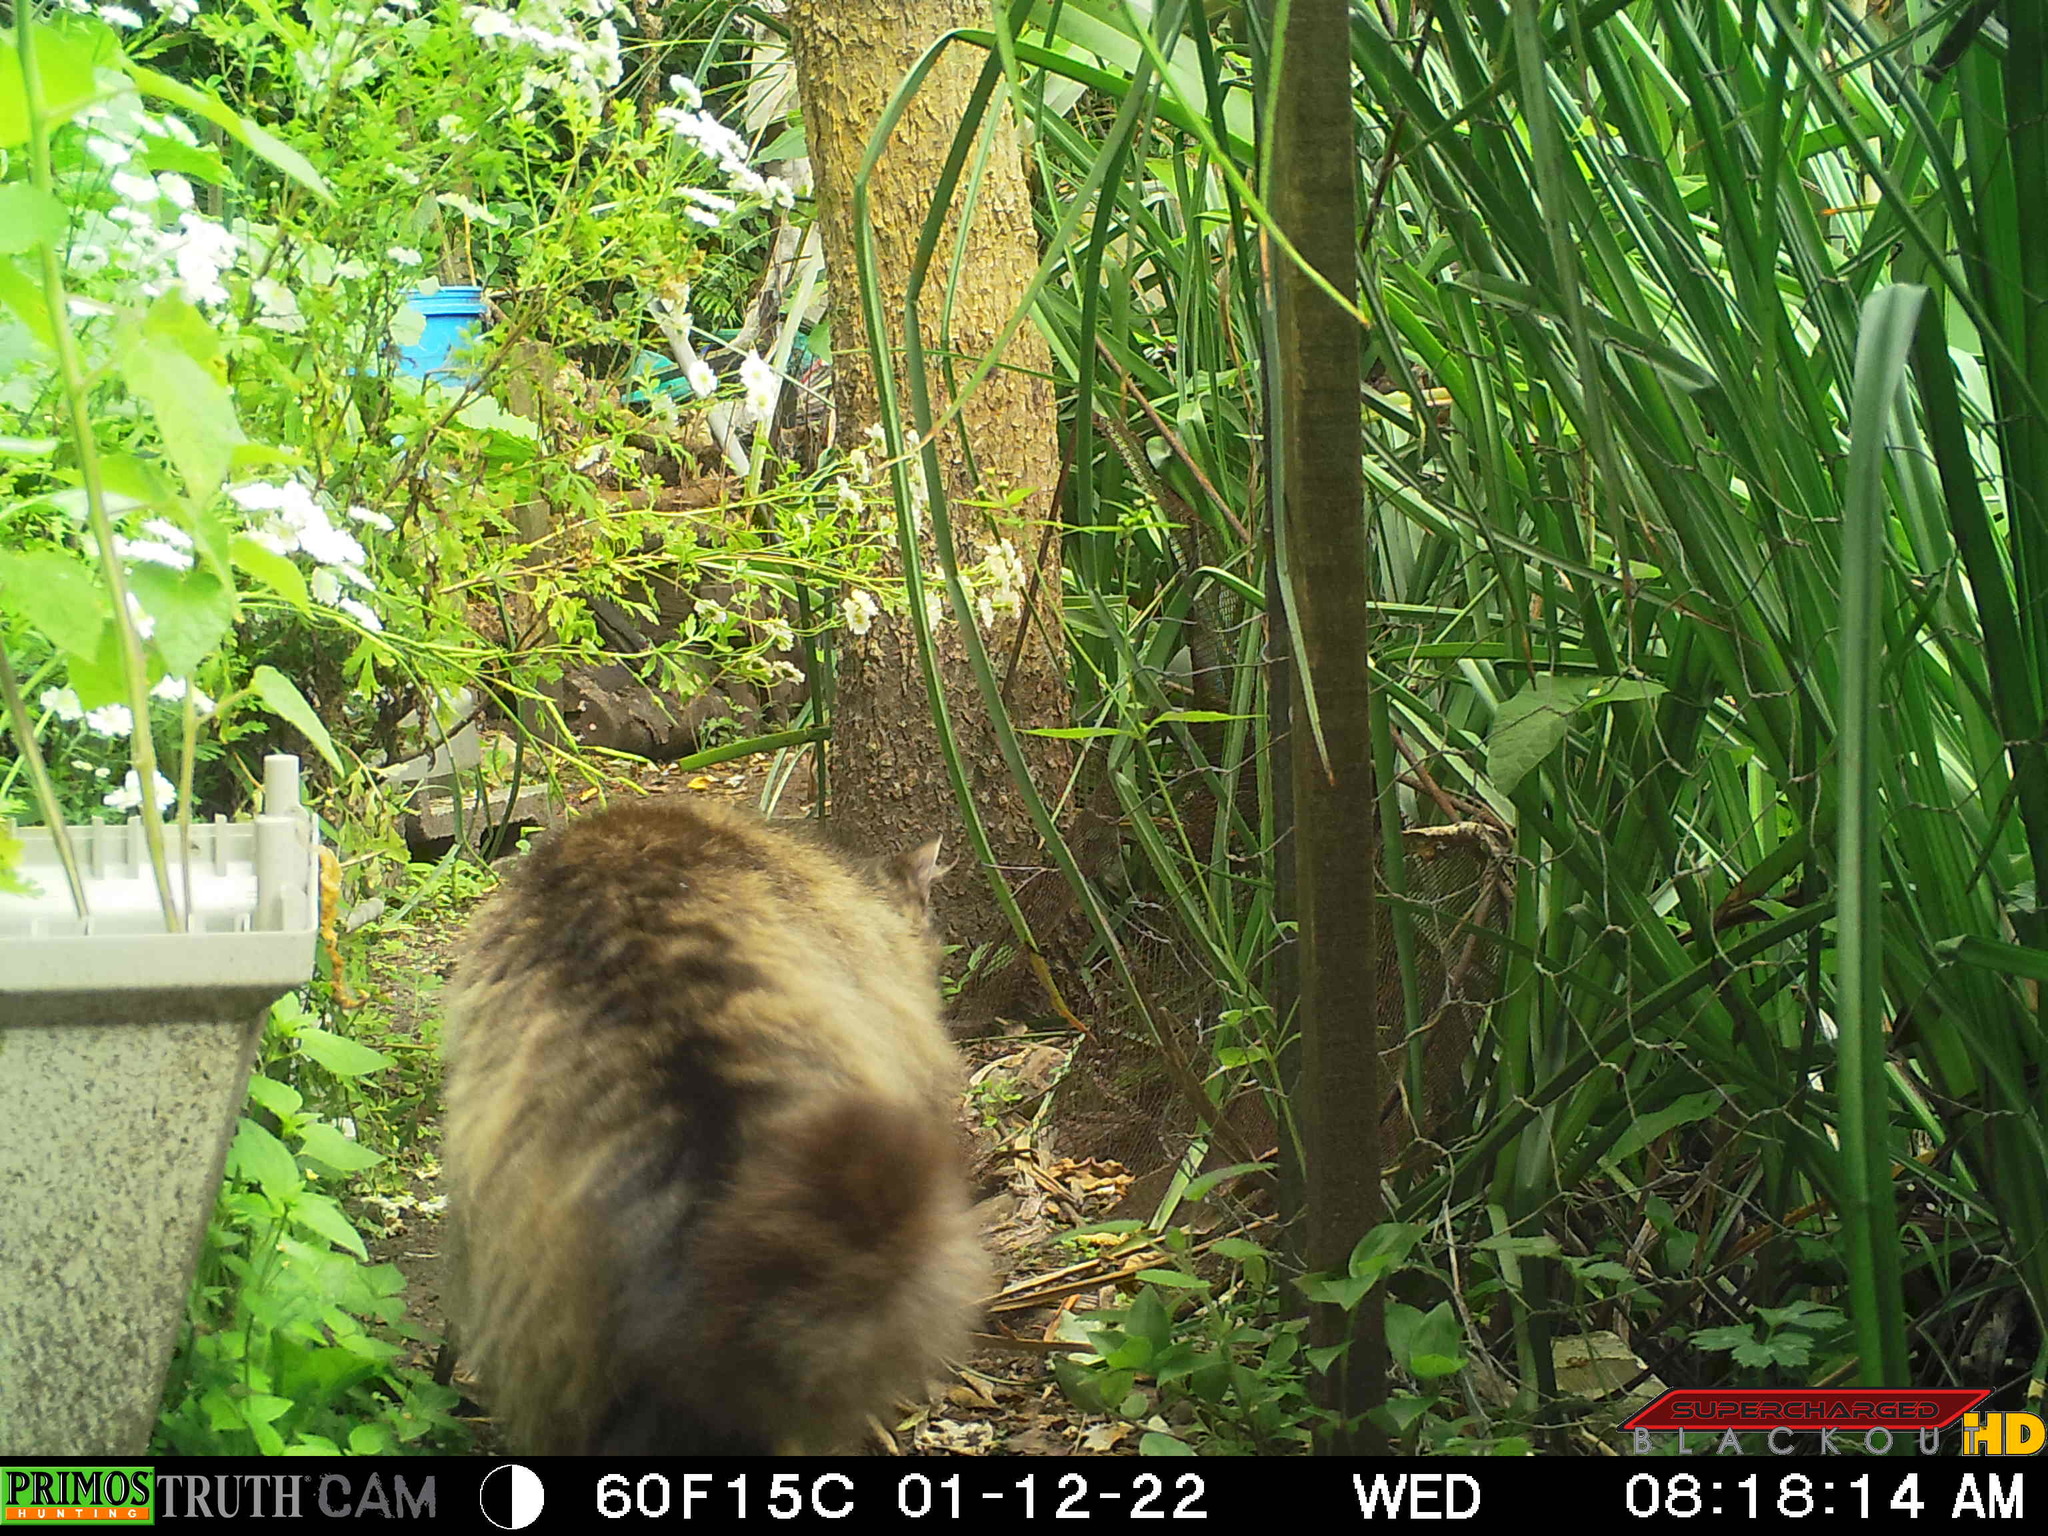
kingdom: Animalia
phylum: Chordata
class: Mammalia
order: Carnivora
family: Felidae
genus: Felis
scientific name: Felis catus
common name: Domestic cat
